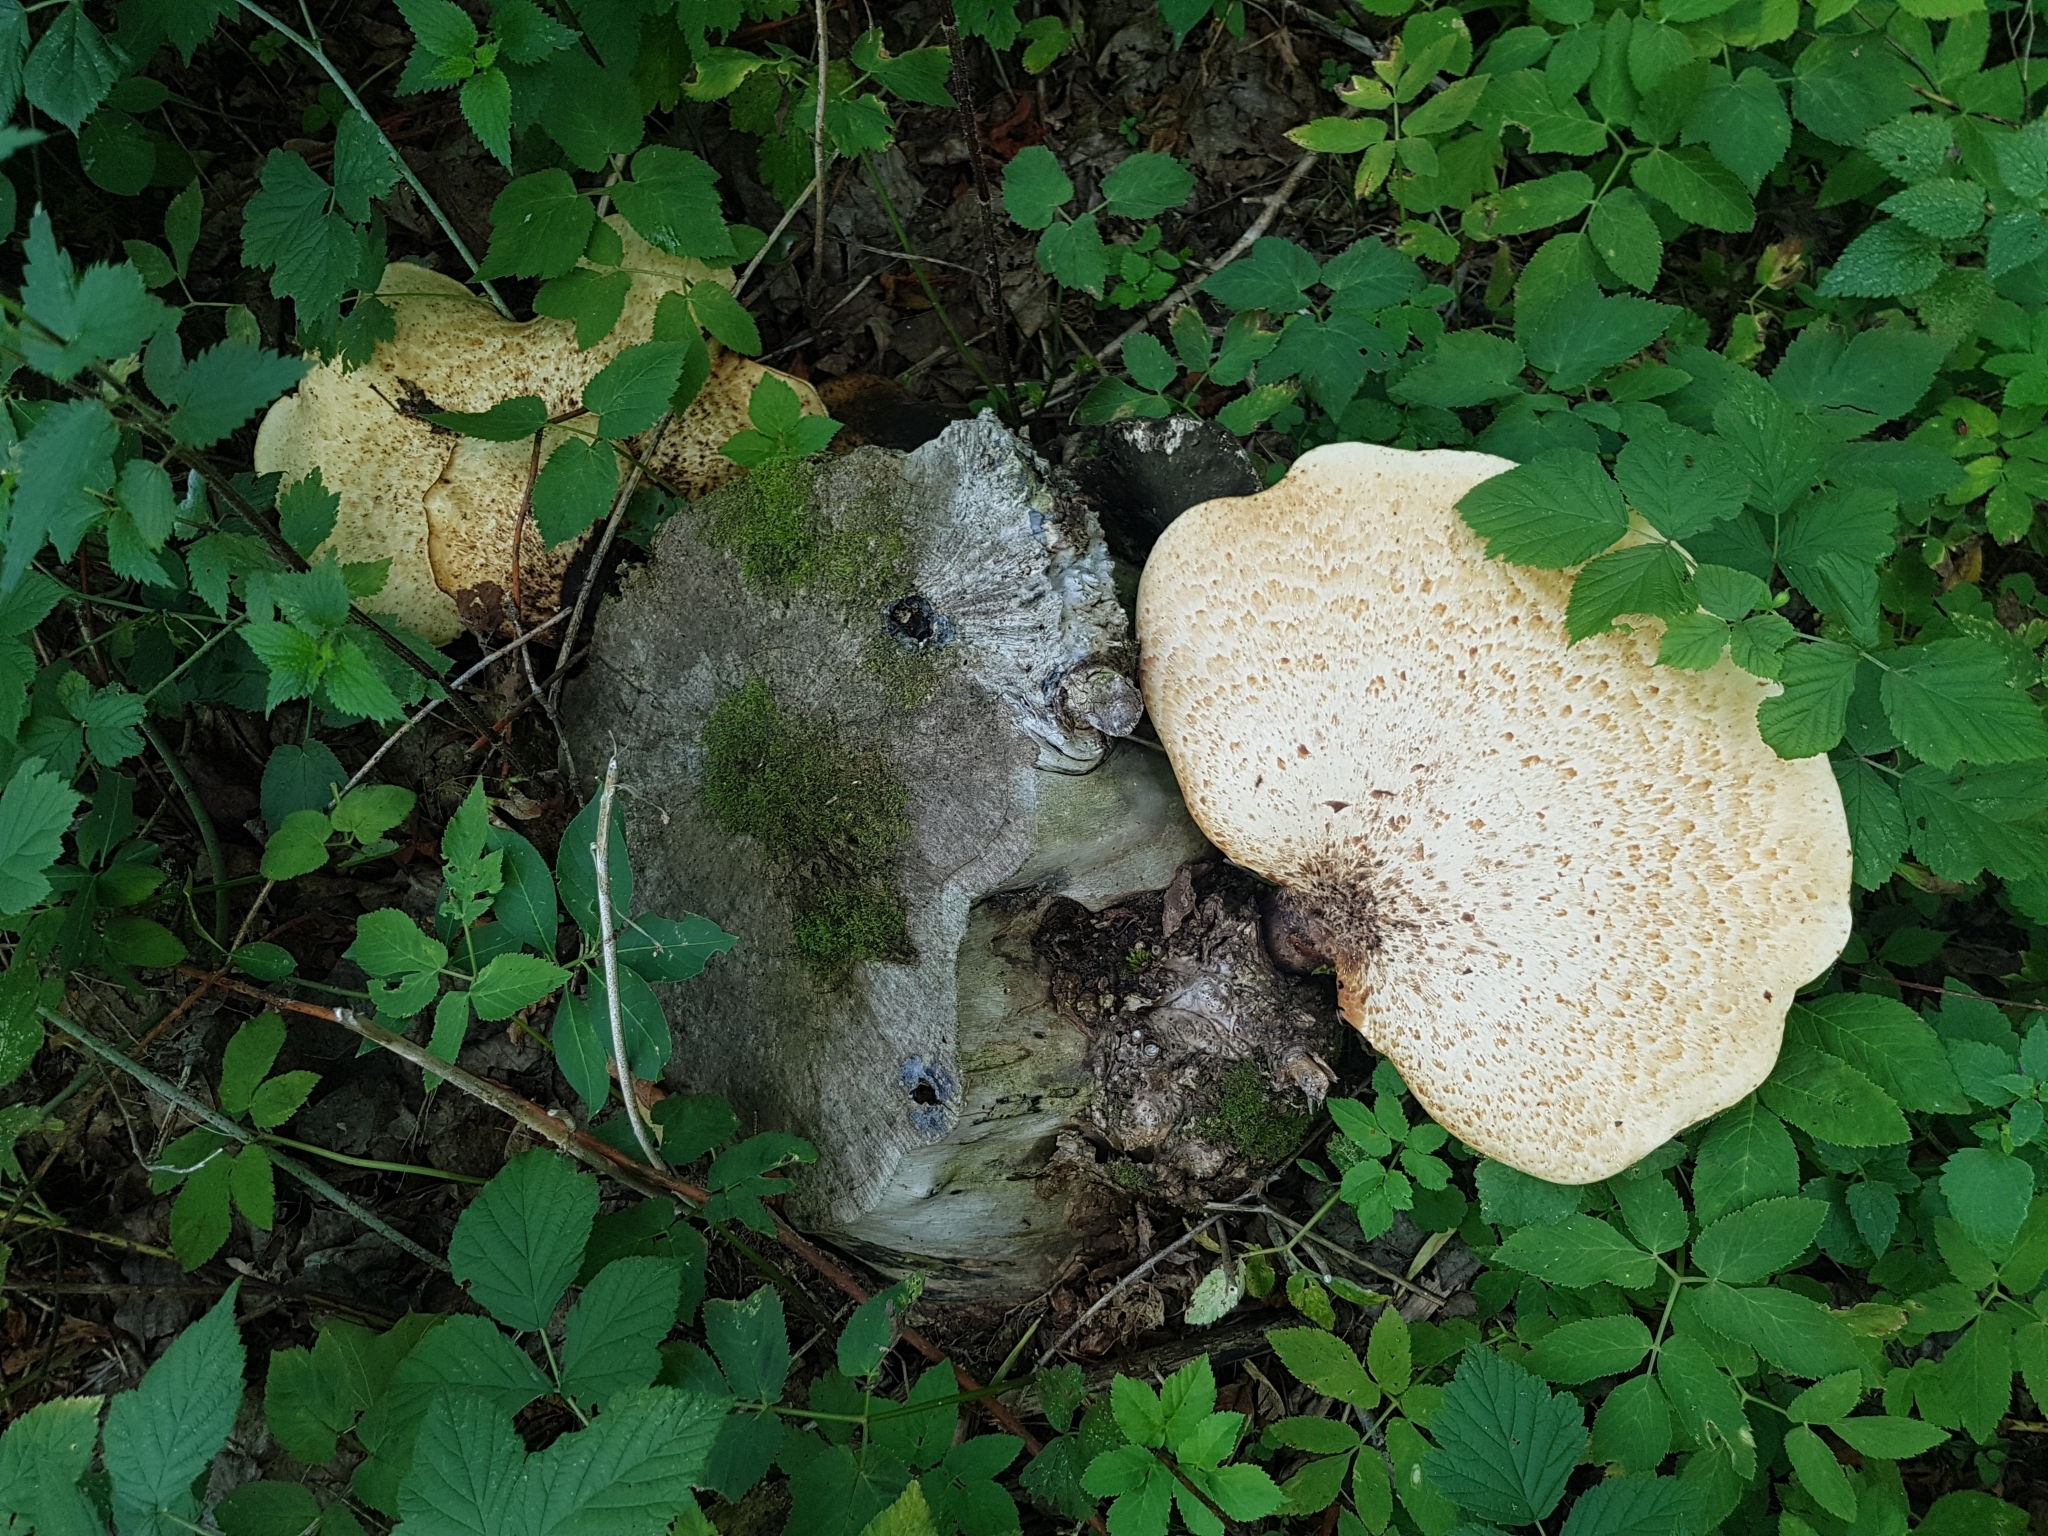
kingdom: Fungi
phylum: Basidiomycota
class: Agaricomycetes
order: Polyporales
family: Polyporaceae
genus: Cerioporus
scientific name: Cerioporus squamosus
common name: Dryad's saddle
